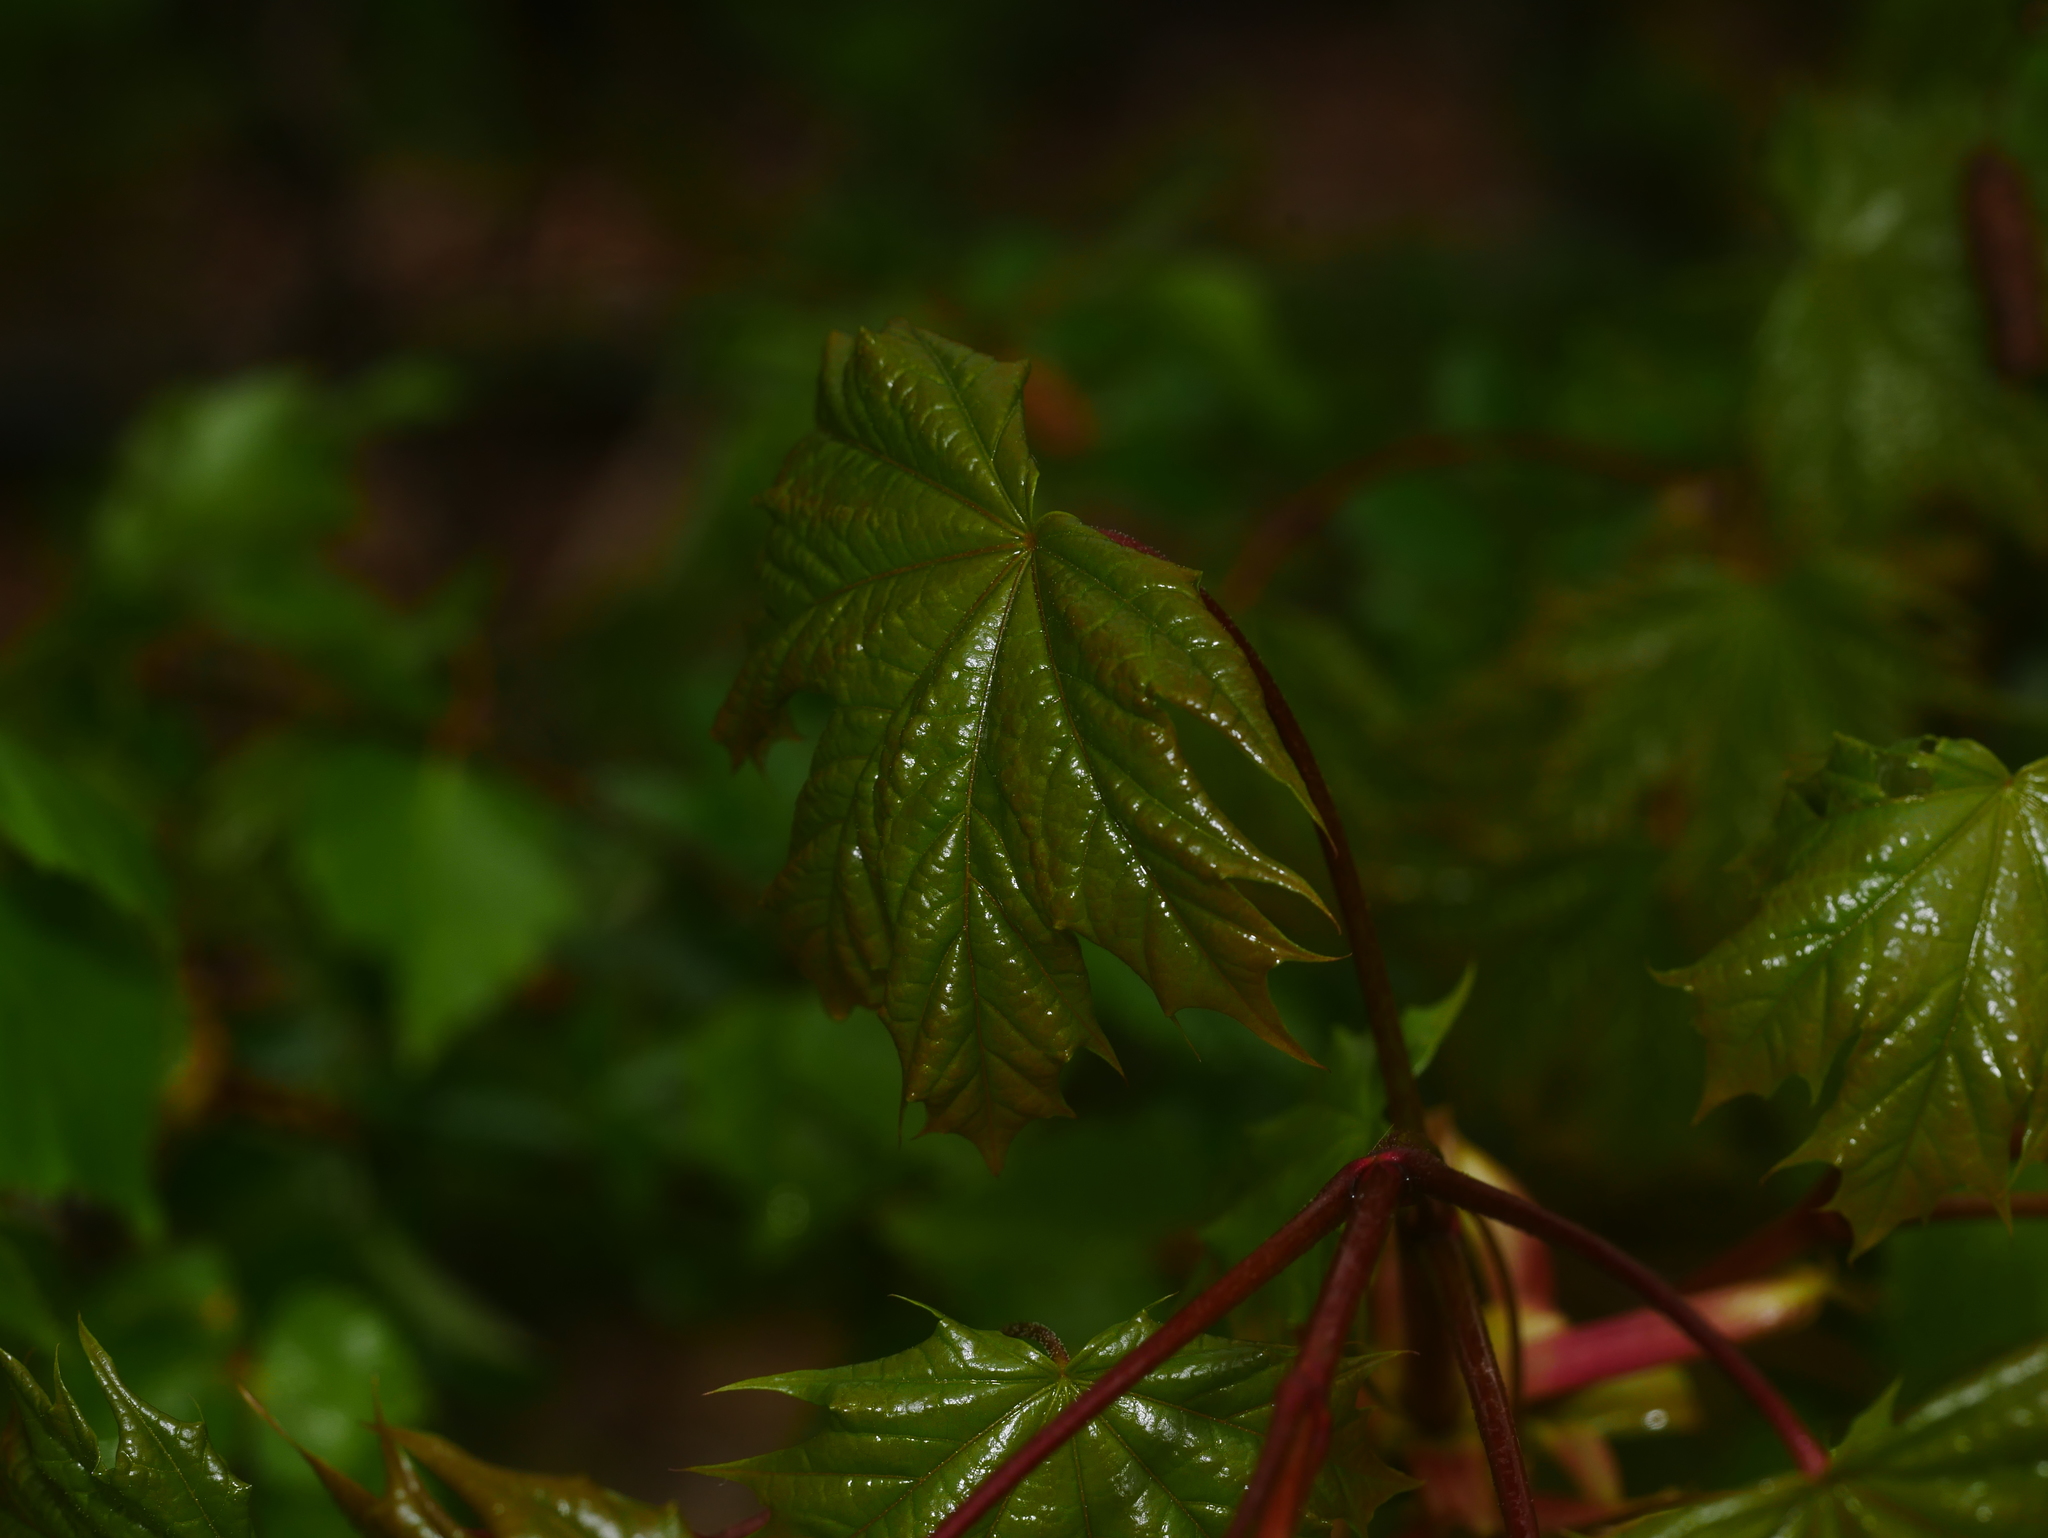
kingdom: Plantae
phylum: Tracheophyta
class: Magnoliopsida
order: Sapindales
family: Sapindaceae
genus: Acer
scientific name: Acer platanoides
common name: Norway maple
